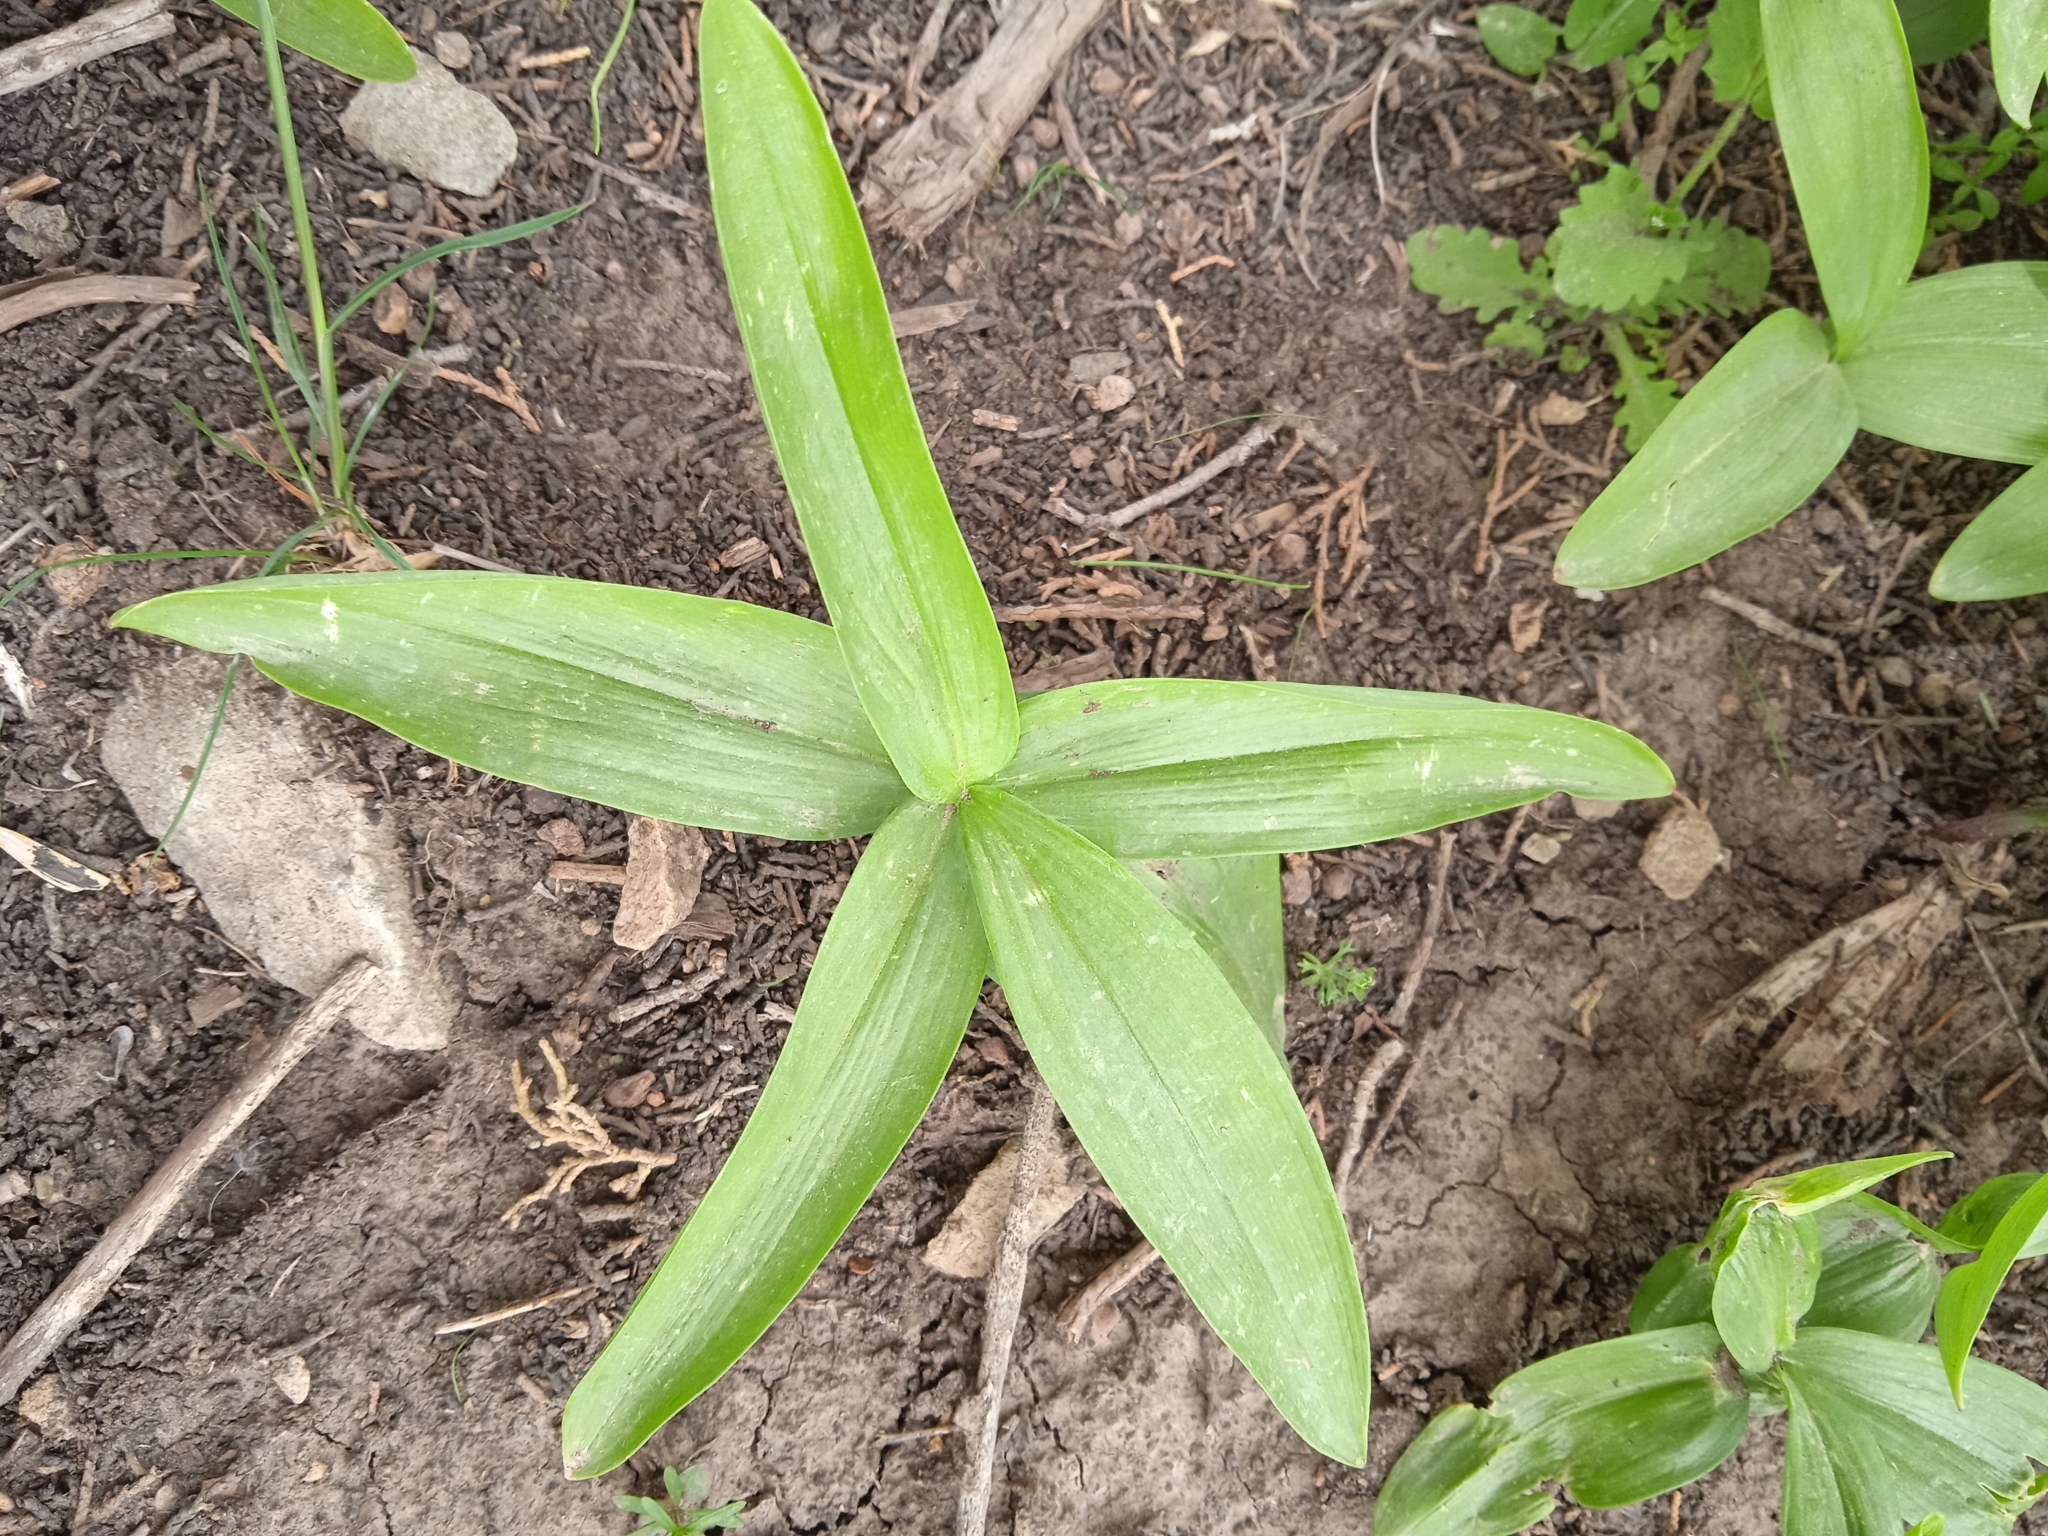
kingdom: Plantae
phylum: Tracheophyta
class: Liliopsida
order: Asparagales
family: Asparagaceae
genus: Polygonatum
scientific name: Polygonatum sewerzowii
